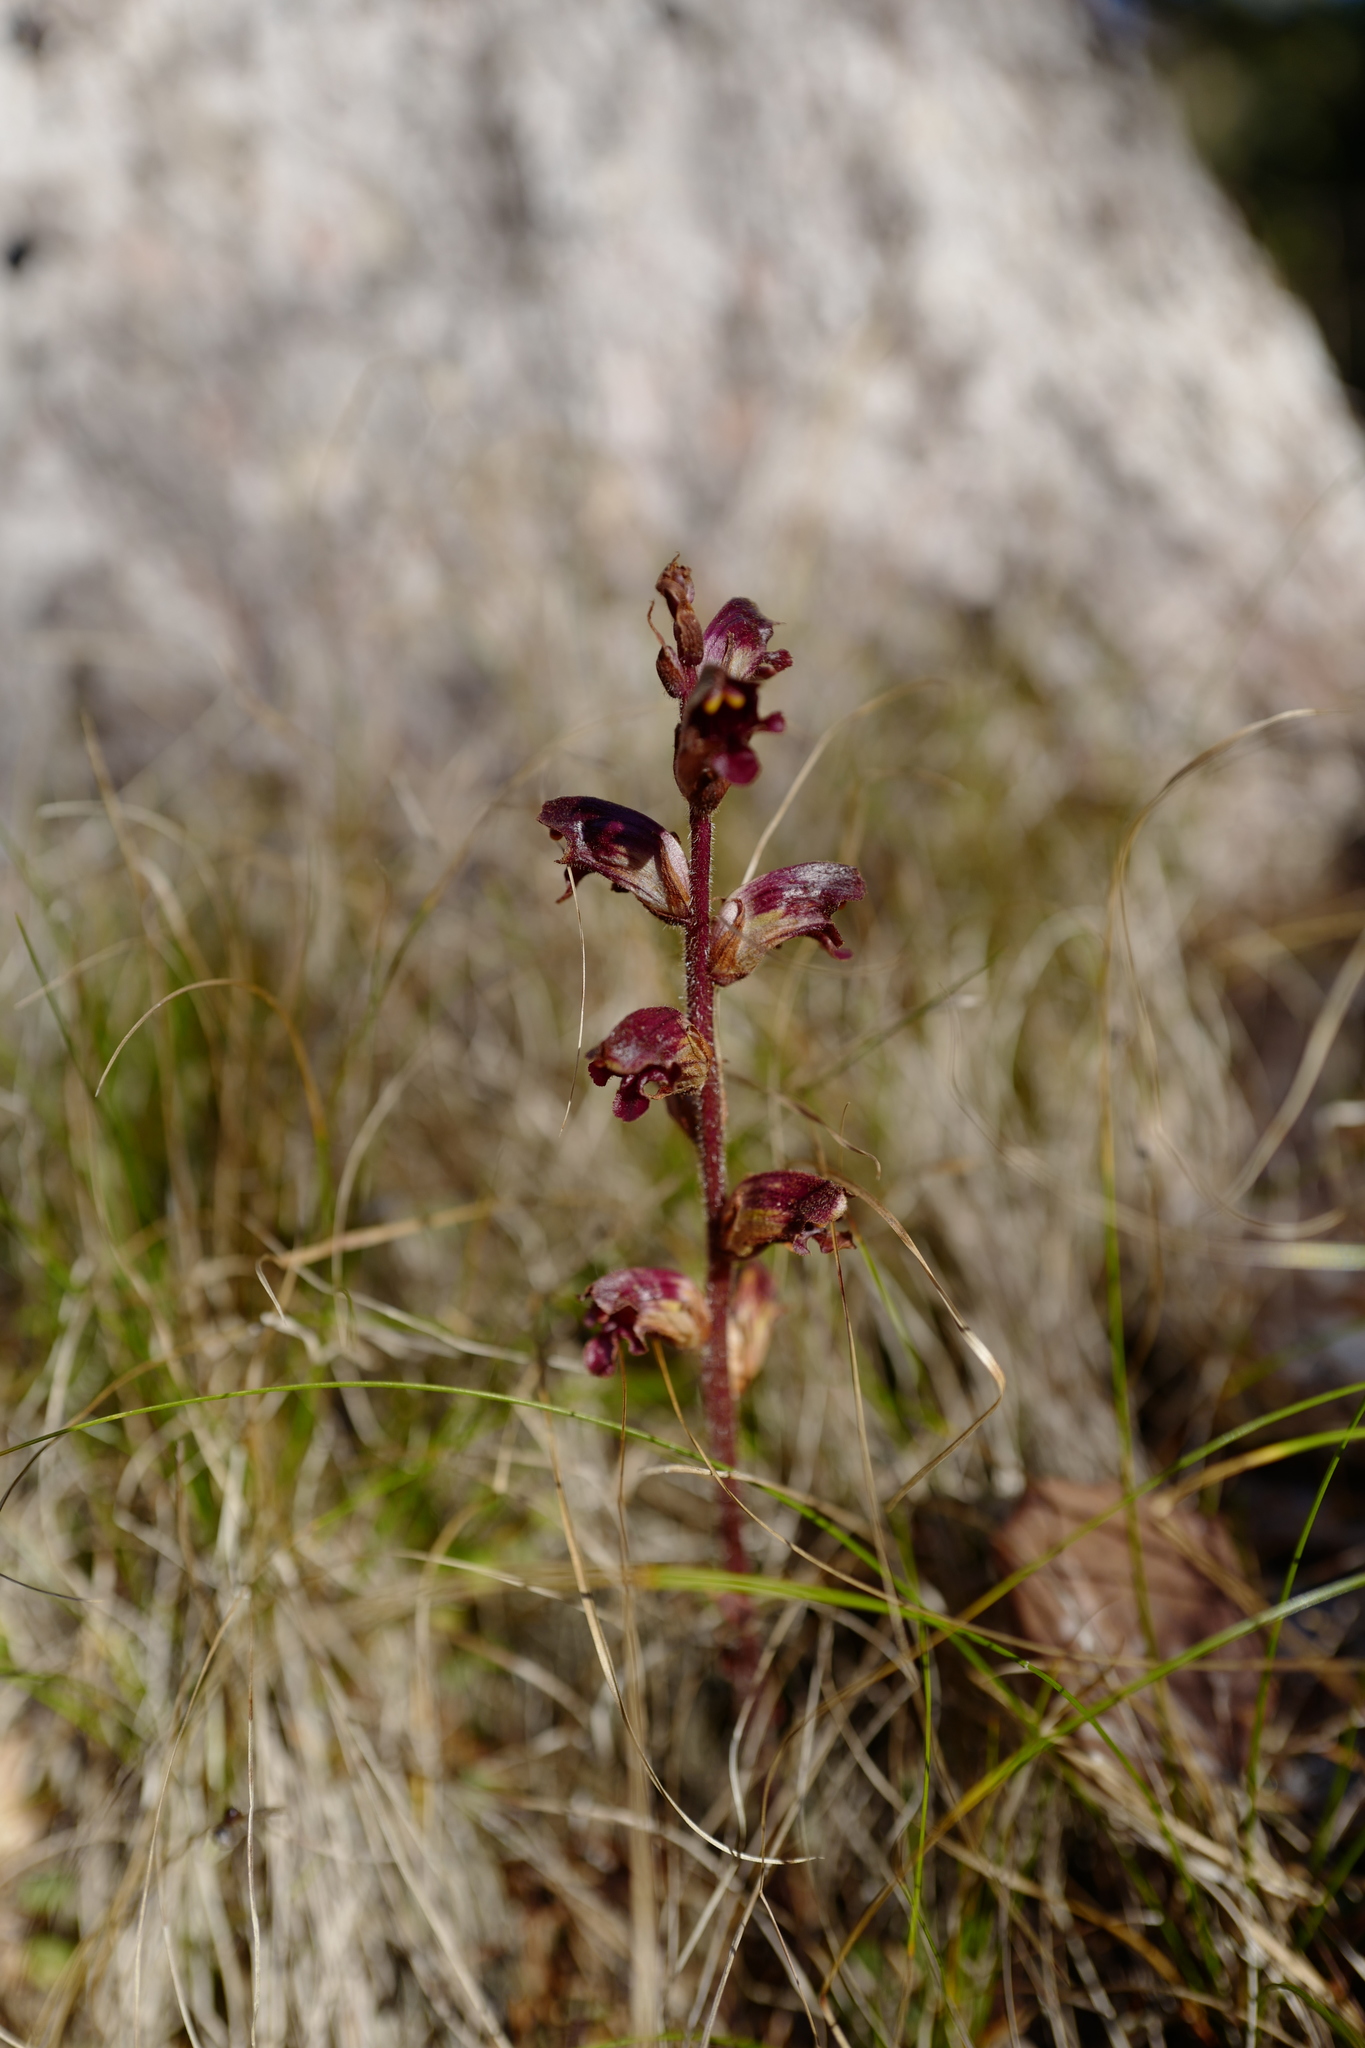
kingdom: Plantae
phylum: Tracheophyta
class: Magnoliopsida
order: Lamiales
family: Orobanchaceae
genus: Orobanche
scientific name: Orobanche gracilis
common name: Slender broomrape
